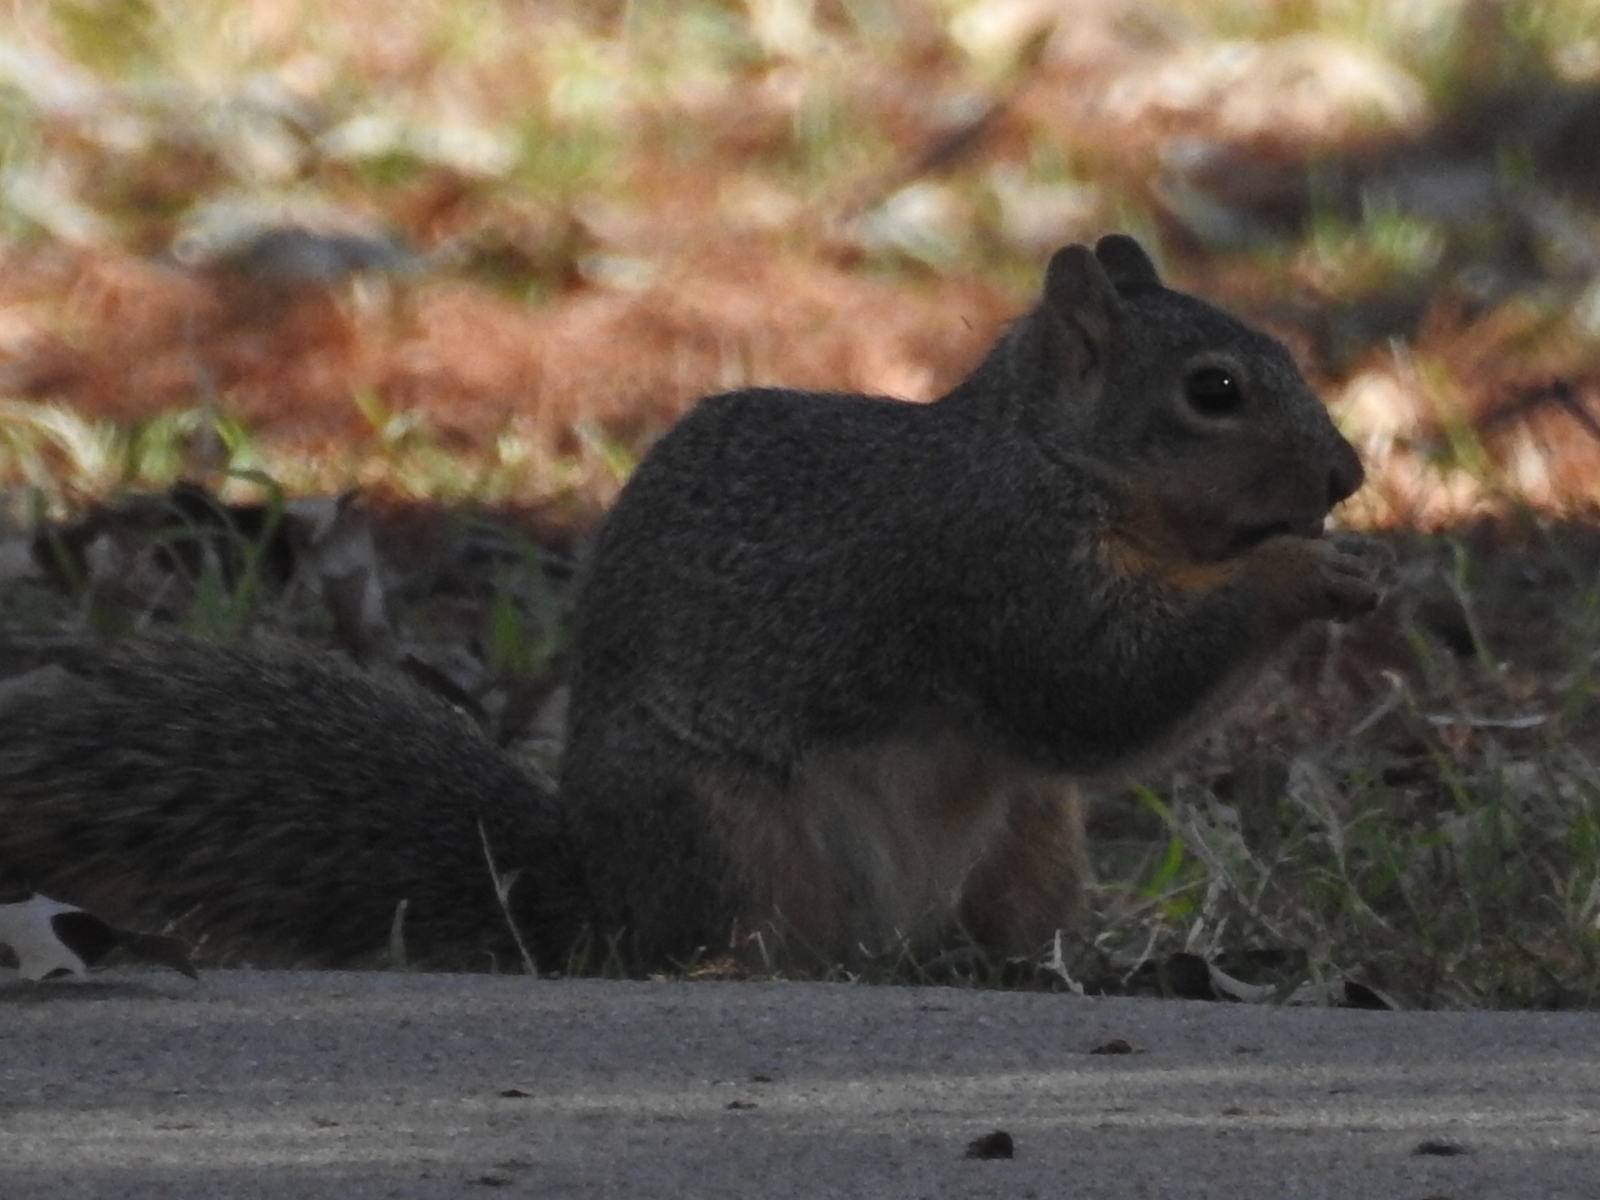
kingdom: Animalia
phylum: Chordata
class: Mammalia
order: Rodentia
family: Sciuridae
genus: Sciurus
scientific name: Sciurus niger
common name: Fox squirrel
